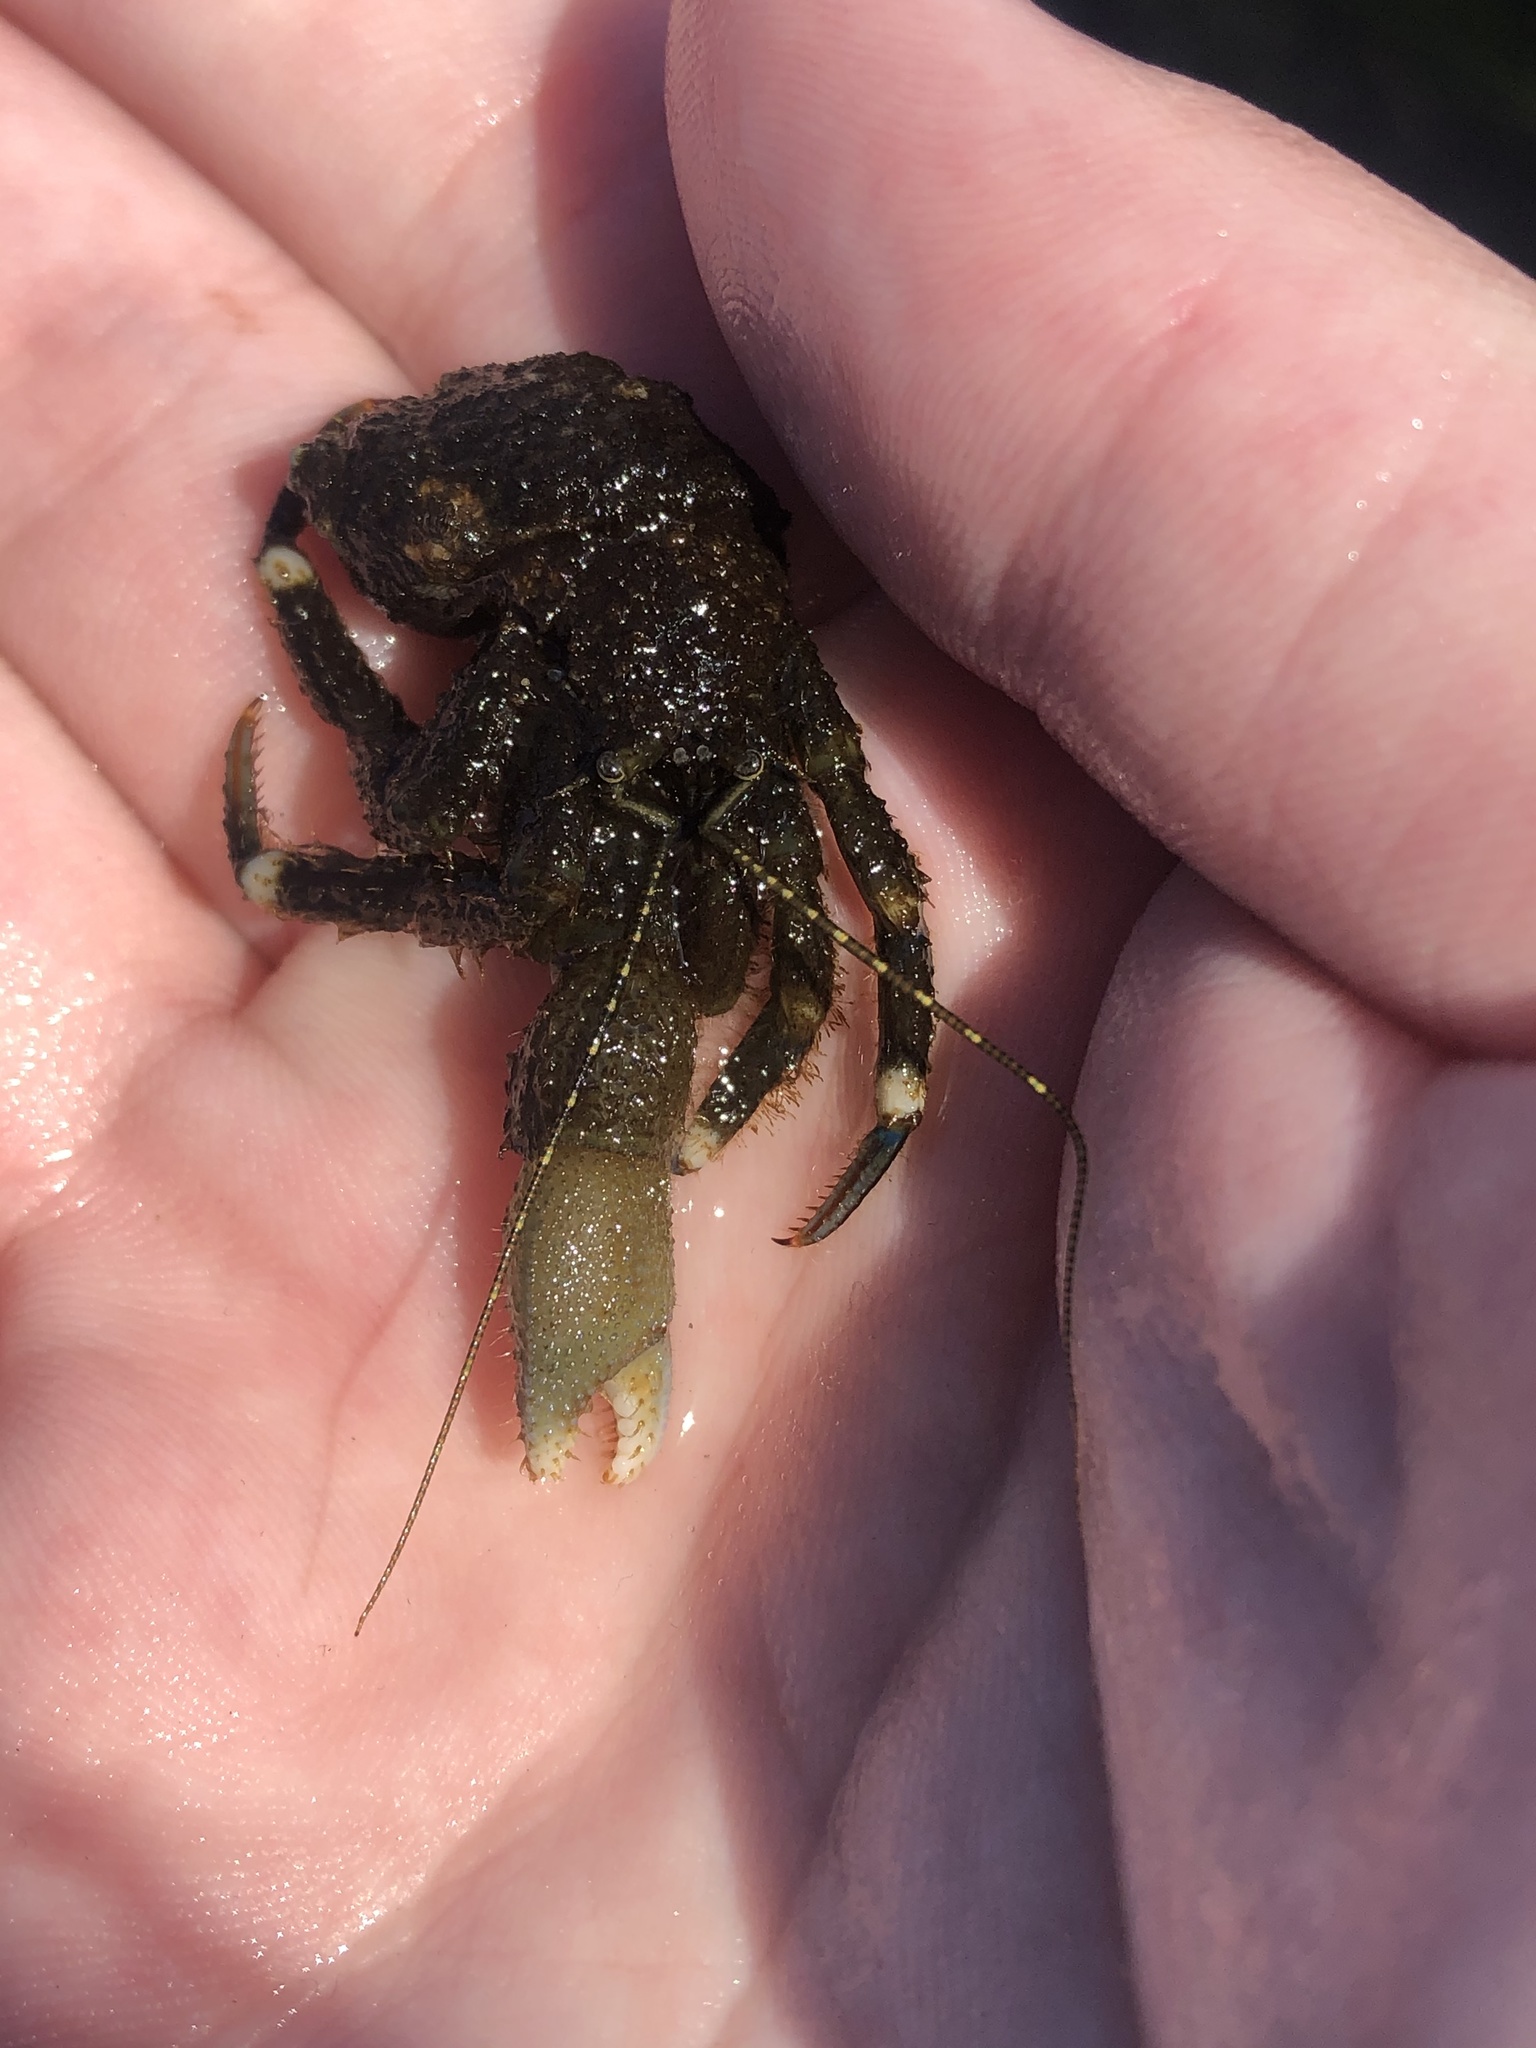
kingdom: Animalia
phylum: Arthropoda
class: Malacostraca
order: Decapoda
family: Paguridae
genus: Pagurus
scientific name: Pagurus hirsutiusculus
